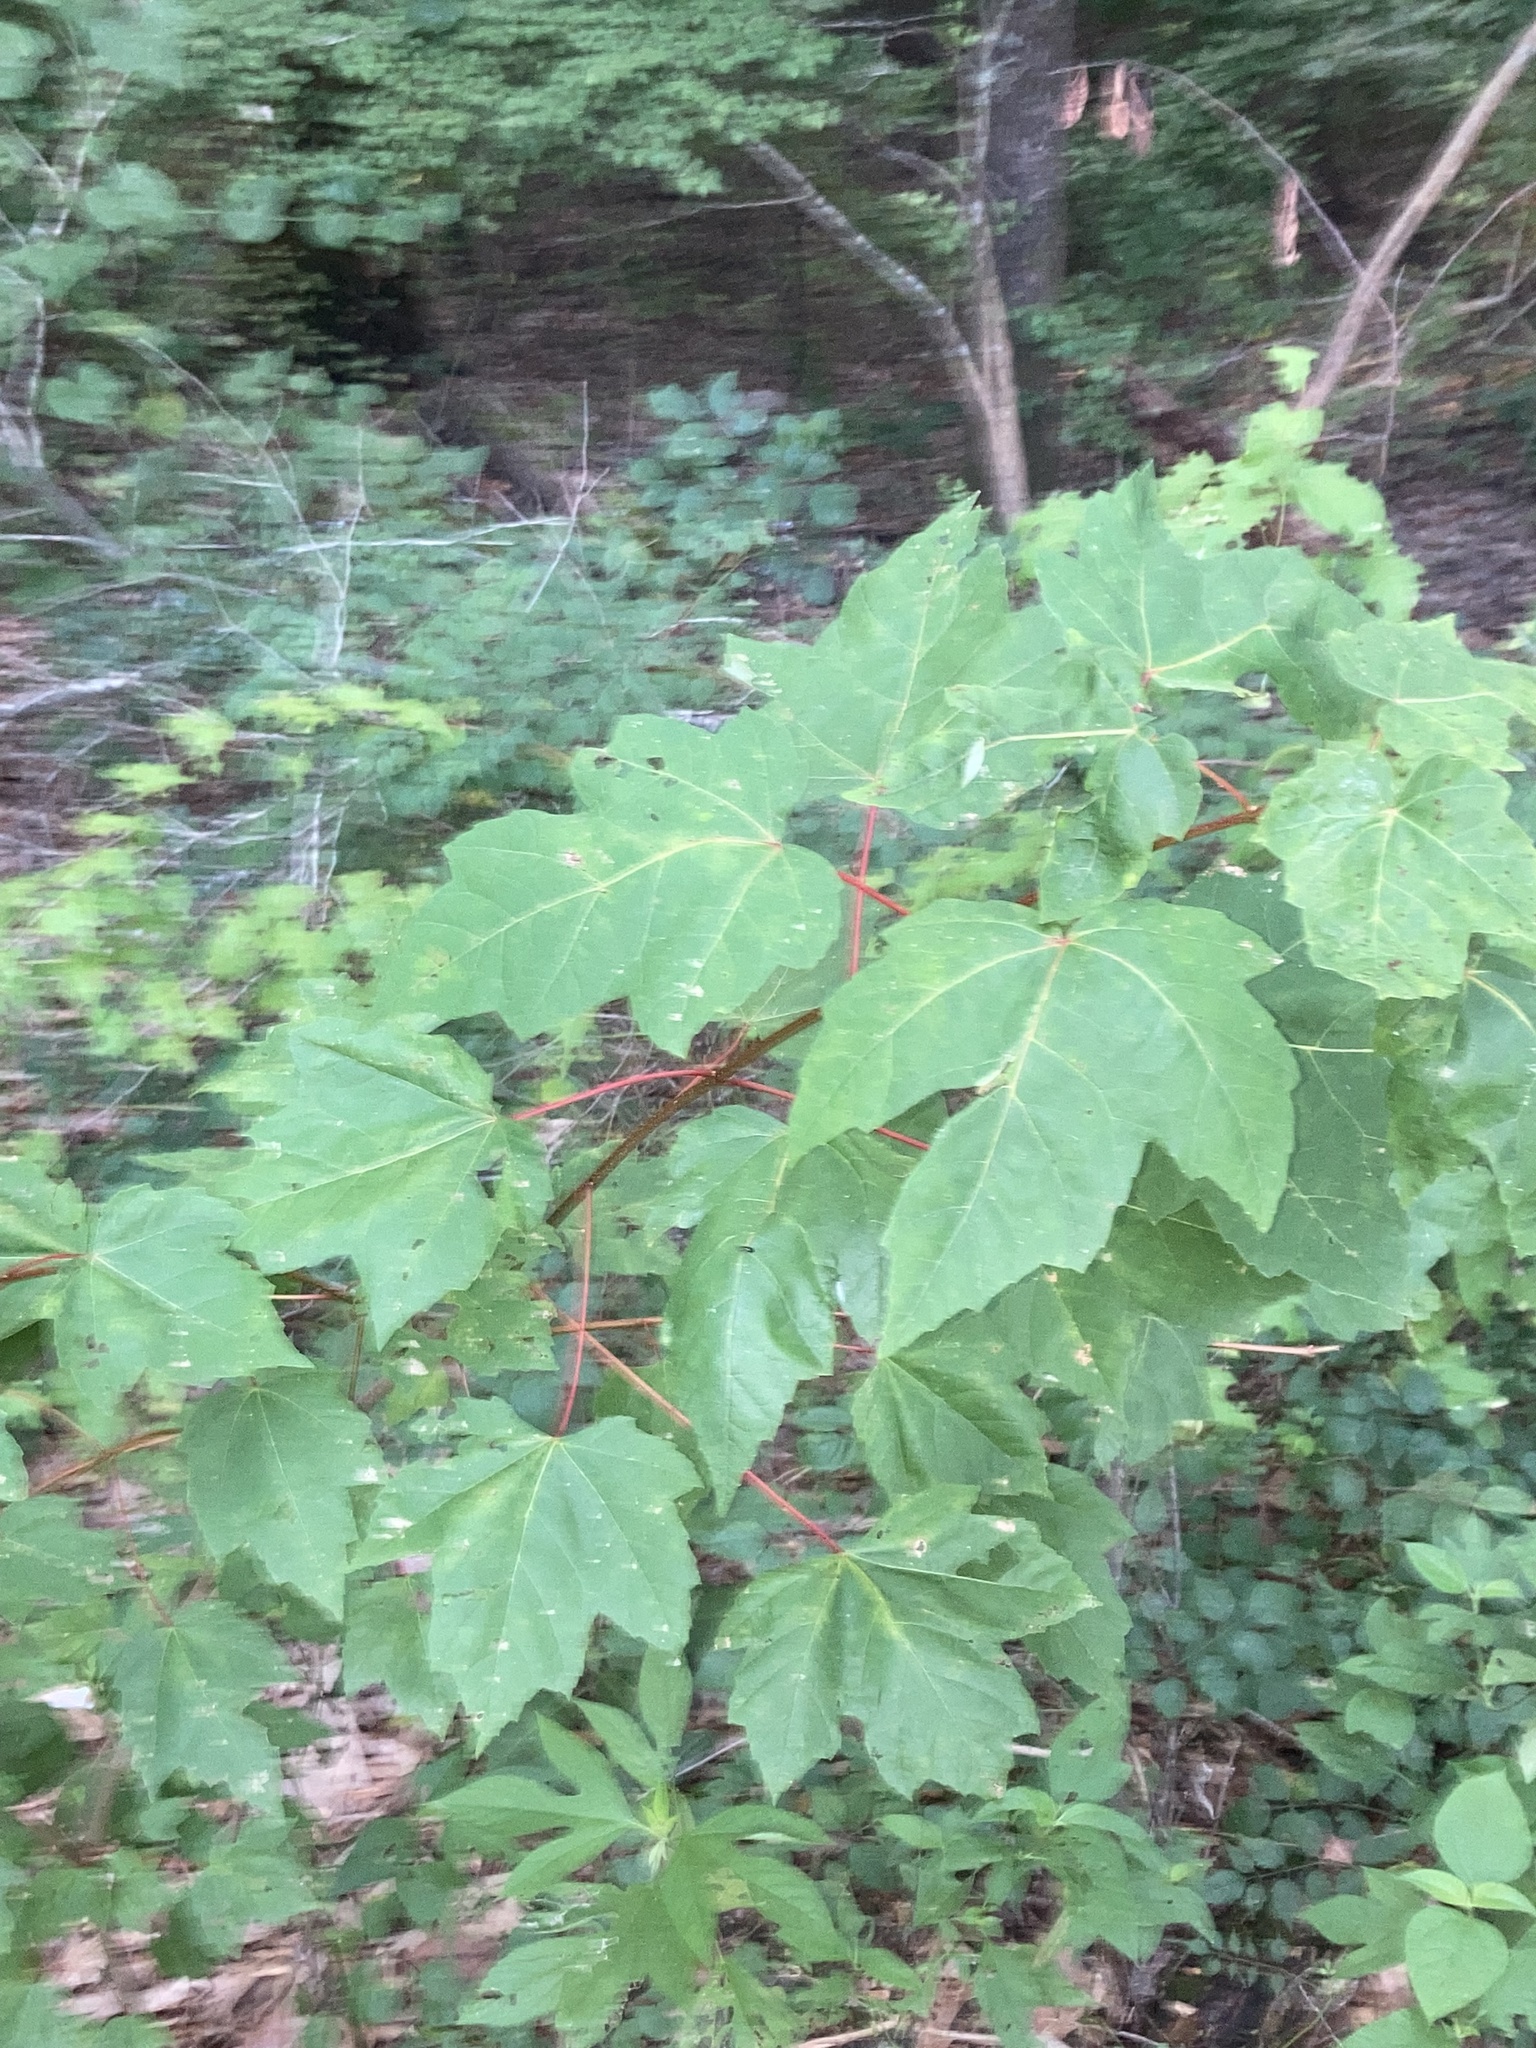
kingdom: Plantae
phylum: Tracheophyta
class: Magnoliopsida
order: Sapindales
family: Sapindaceae
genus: Acer
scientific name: Acer rubrum
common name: Red maple
